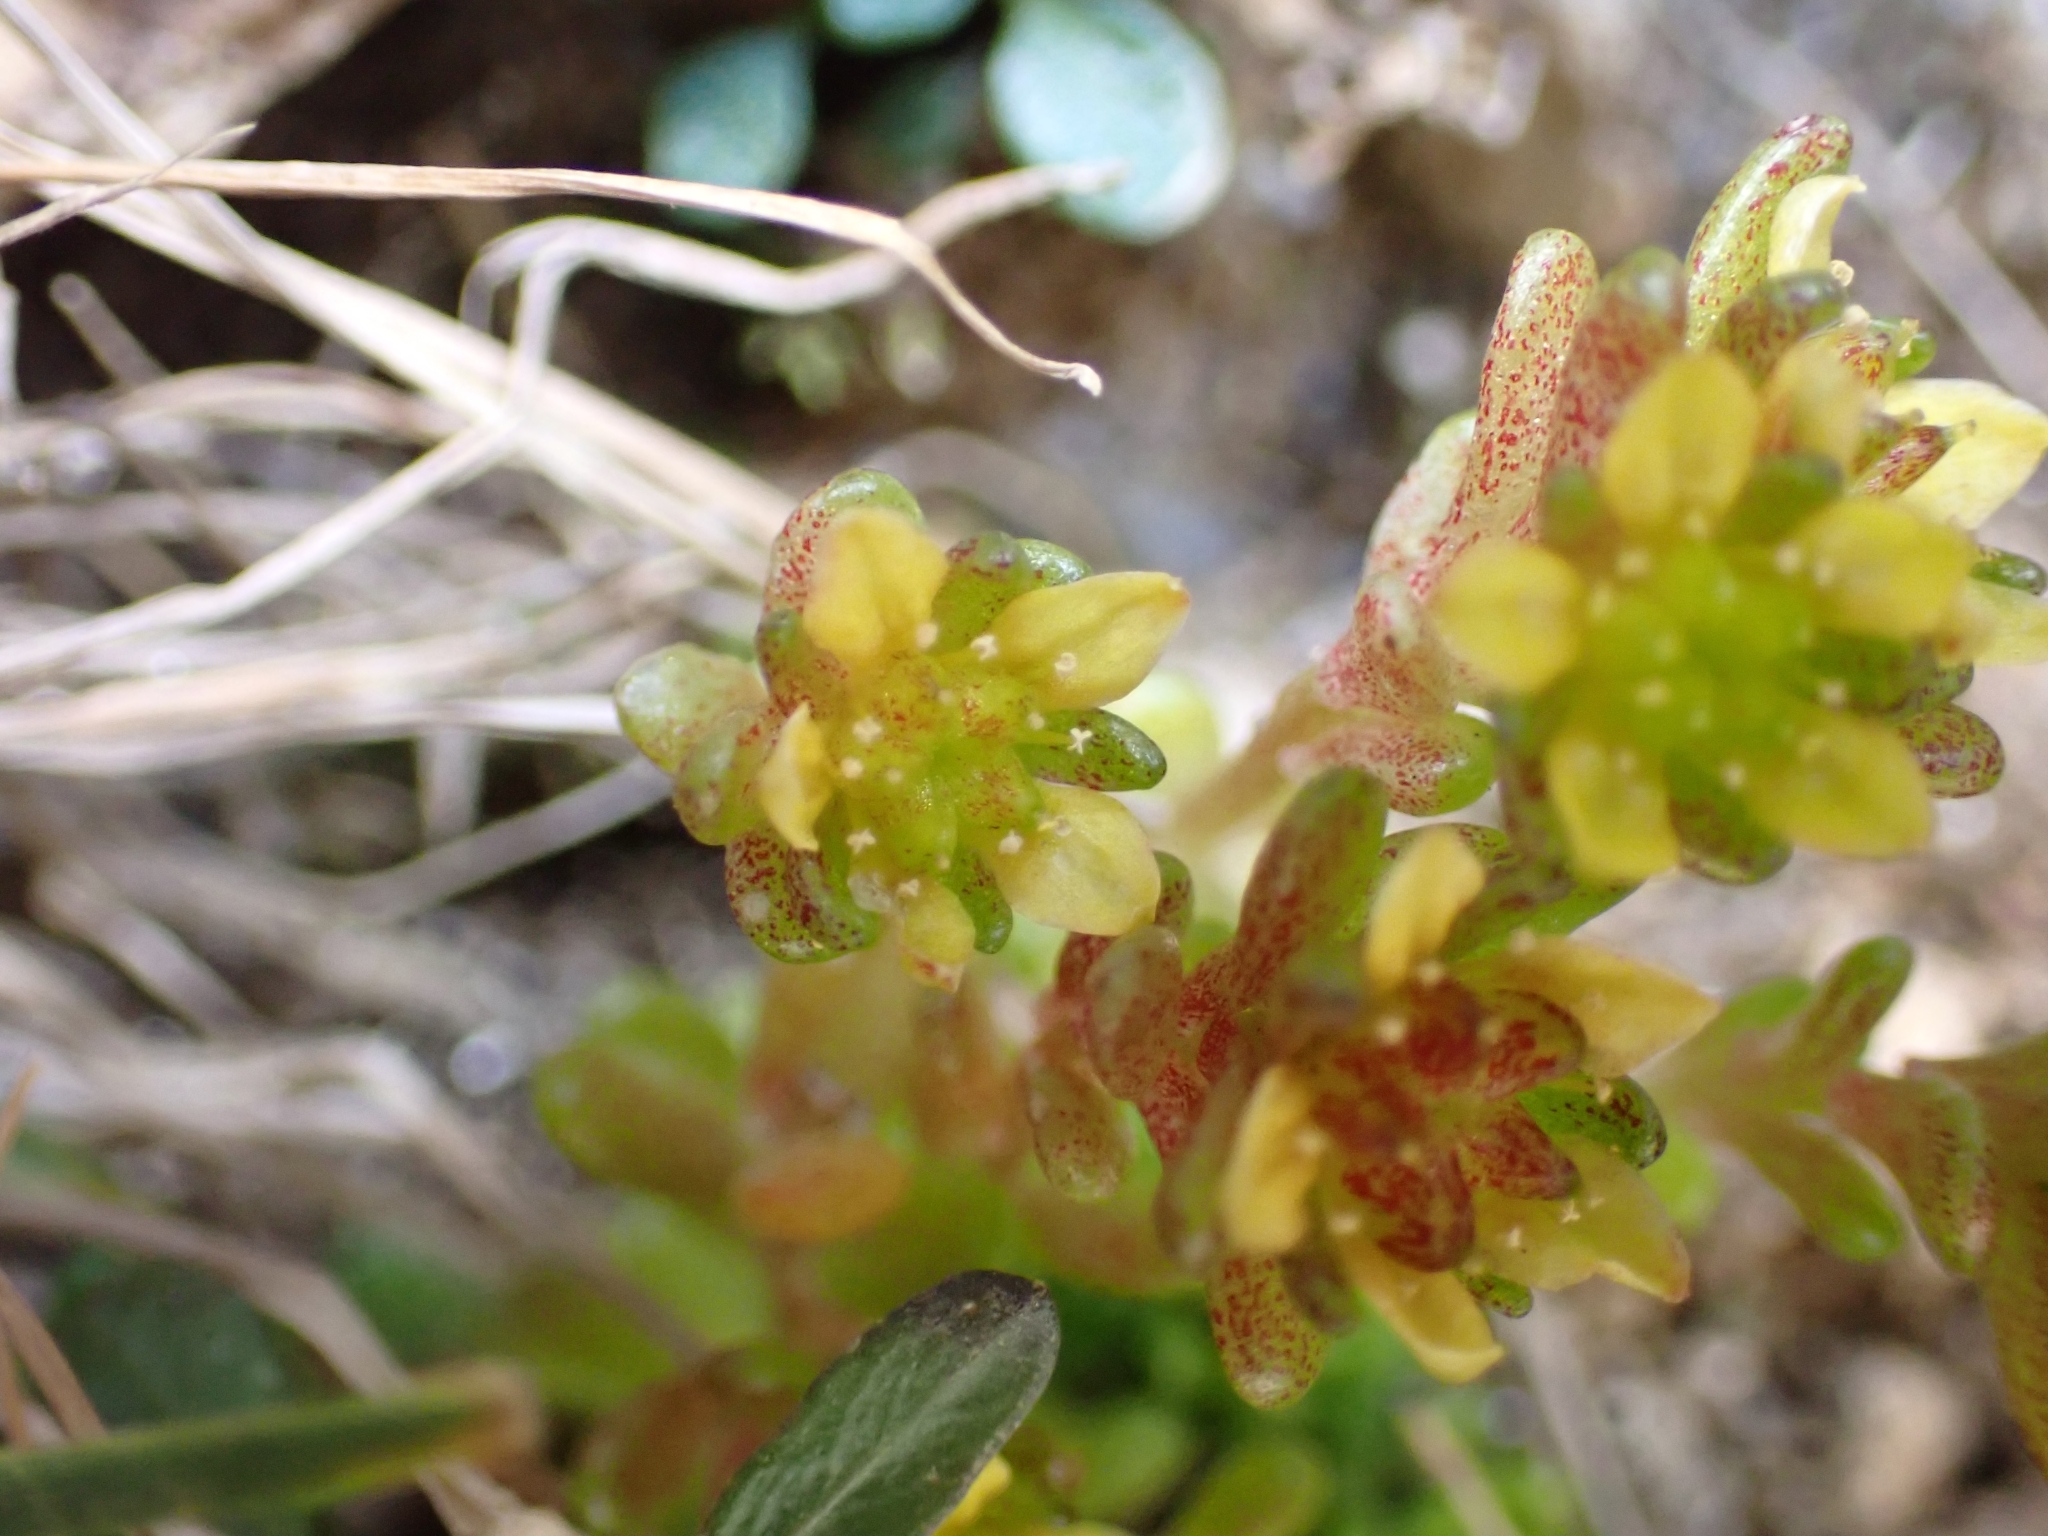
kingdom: Plantae
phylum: Tracheophyta
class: Magnoliopsida
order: Saxifragales
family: Crassulaceae
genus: Sedum
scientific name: Sedum alpestre
